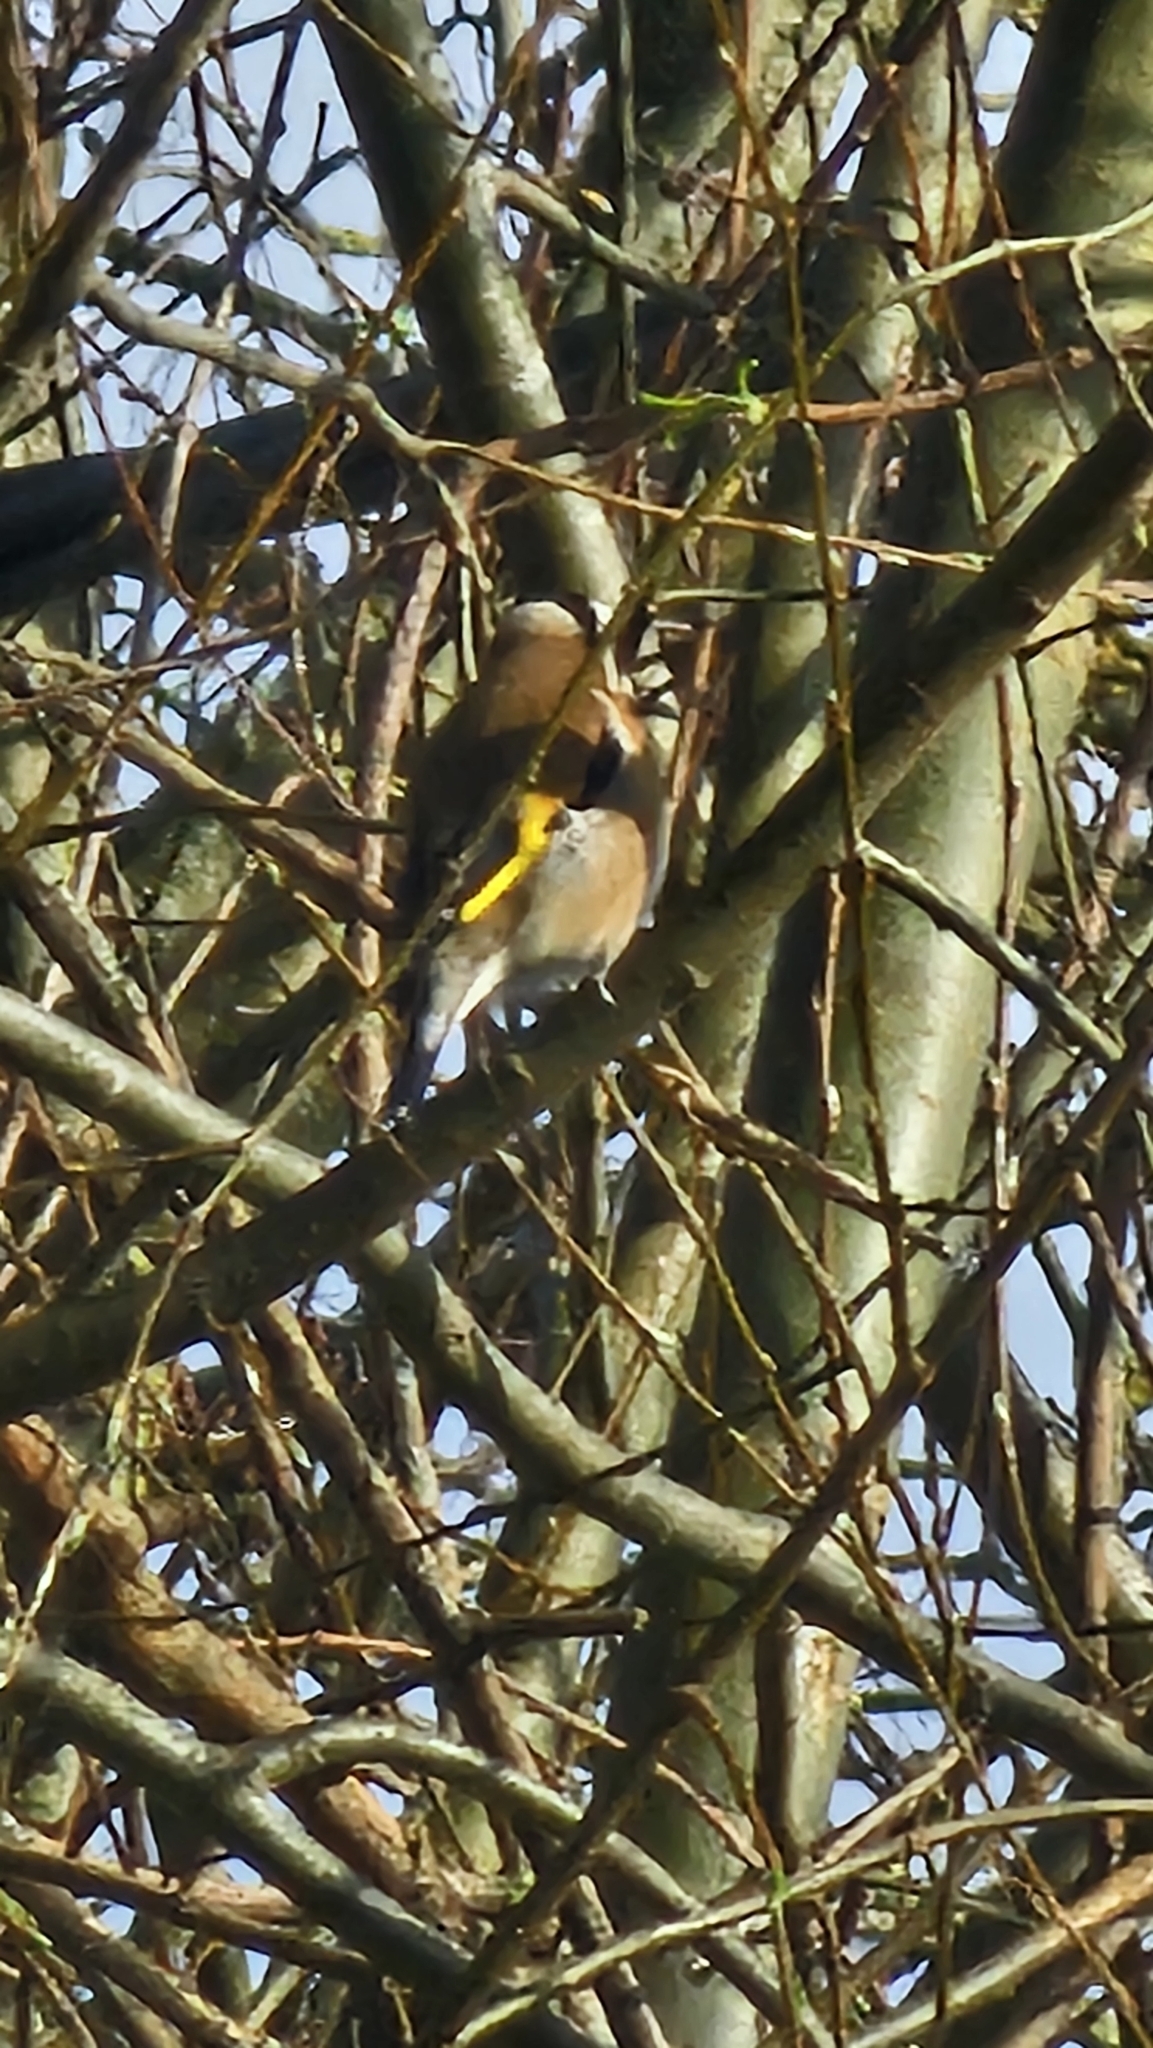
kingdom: Animalia
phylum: Chordata
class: Aves
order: Passeriformes
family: Fringillidae
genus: Carduelis
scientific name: Carduelis carduelis
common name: European goldfinch
